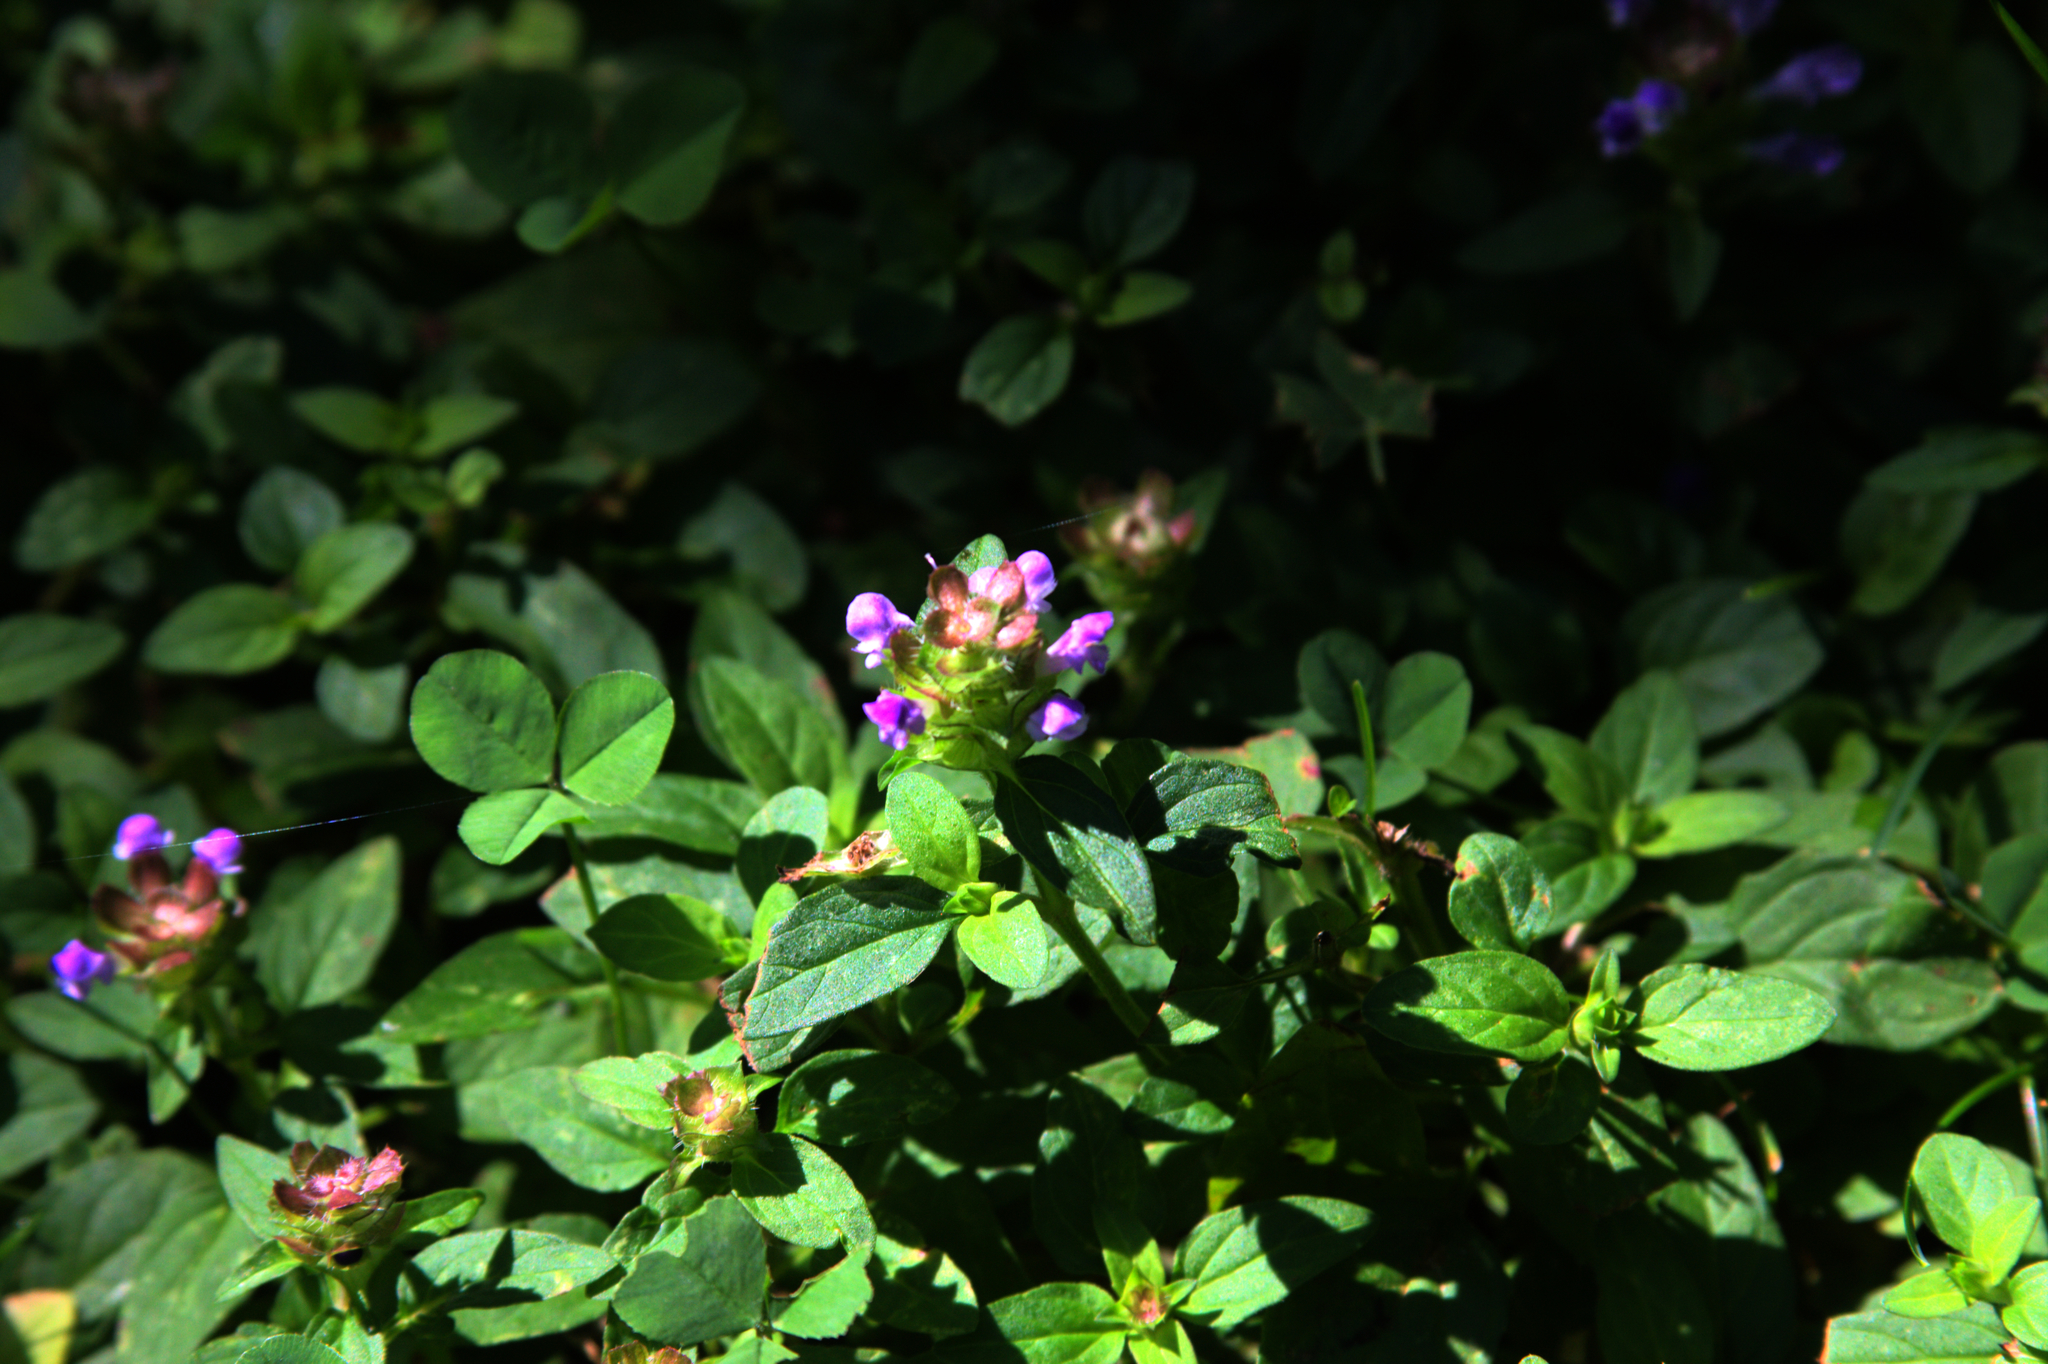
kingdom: Plantae
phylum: Tracheophyta
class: Magnoliopsida
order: Lamiales
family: Lamiaceae
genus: Prunella
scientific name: Prunella vulgaris
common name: Heal-all
